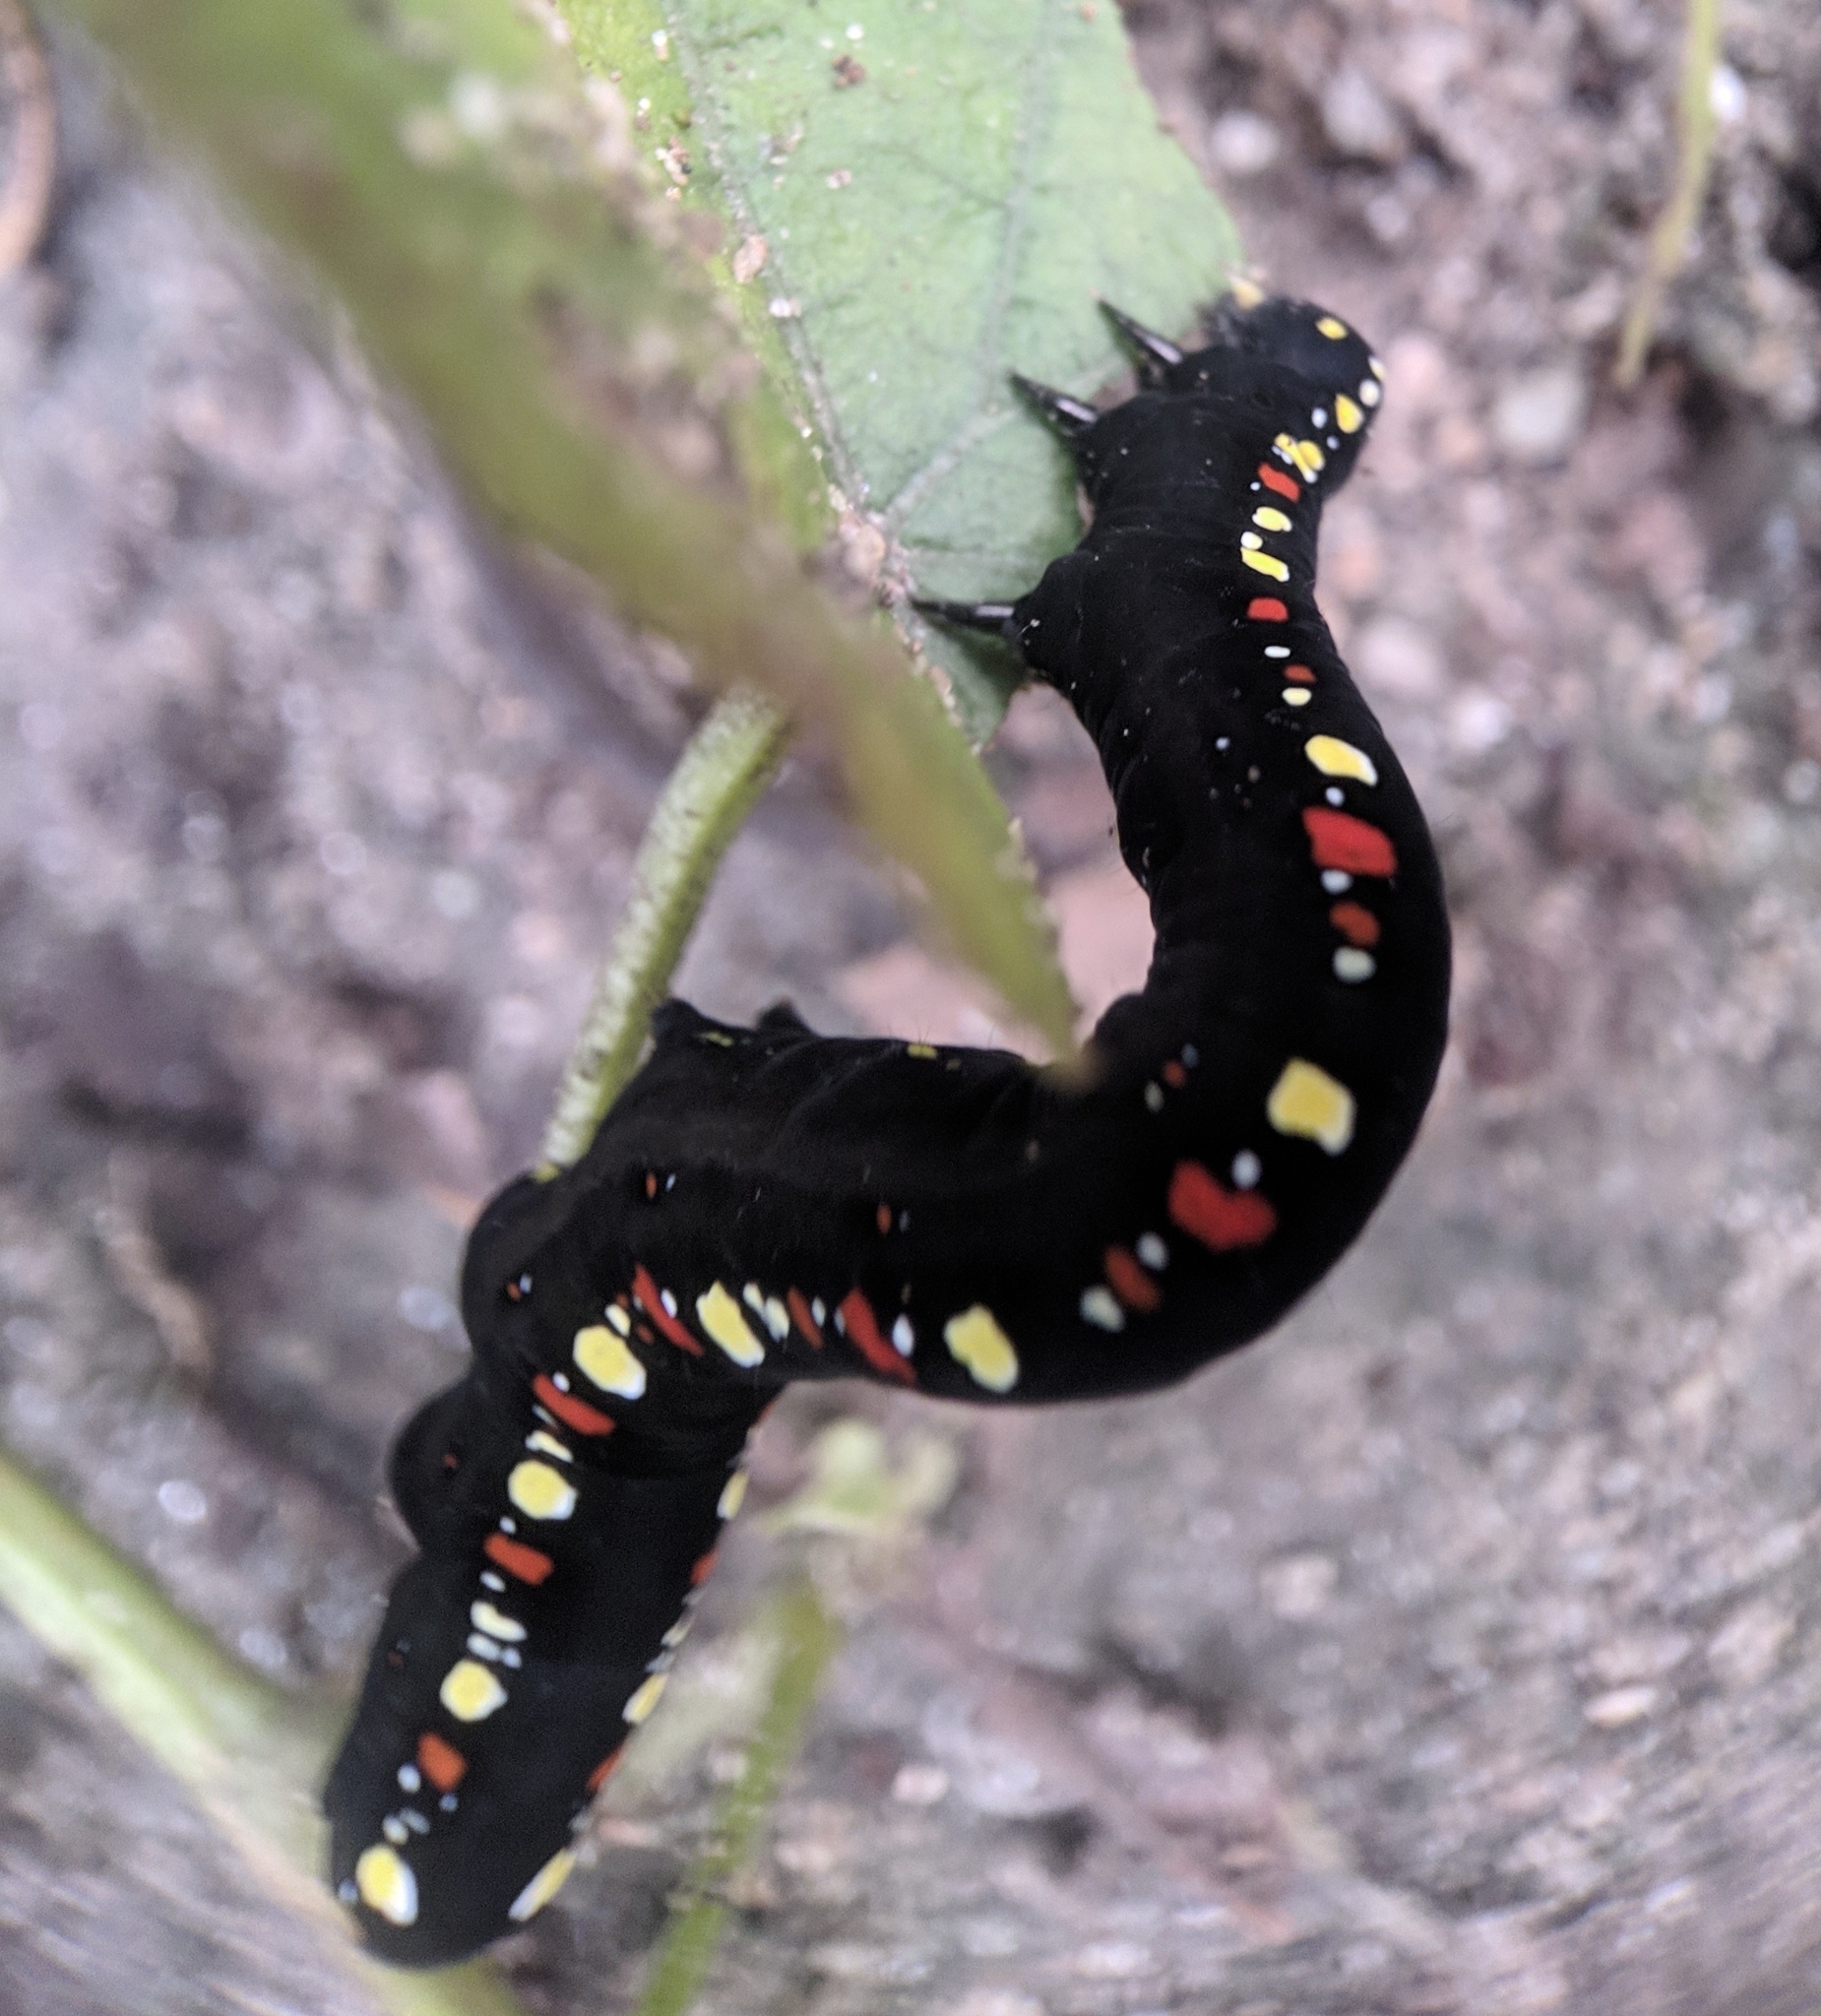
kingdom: Animalia
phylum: Arthropoda
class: Insecta
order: Lepidoptera
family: Erebidae
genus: Oraesia
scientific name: Oraesia emarginata
